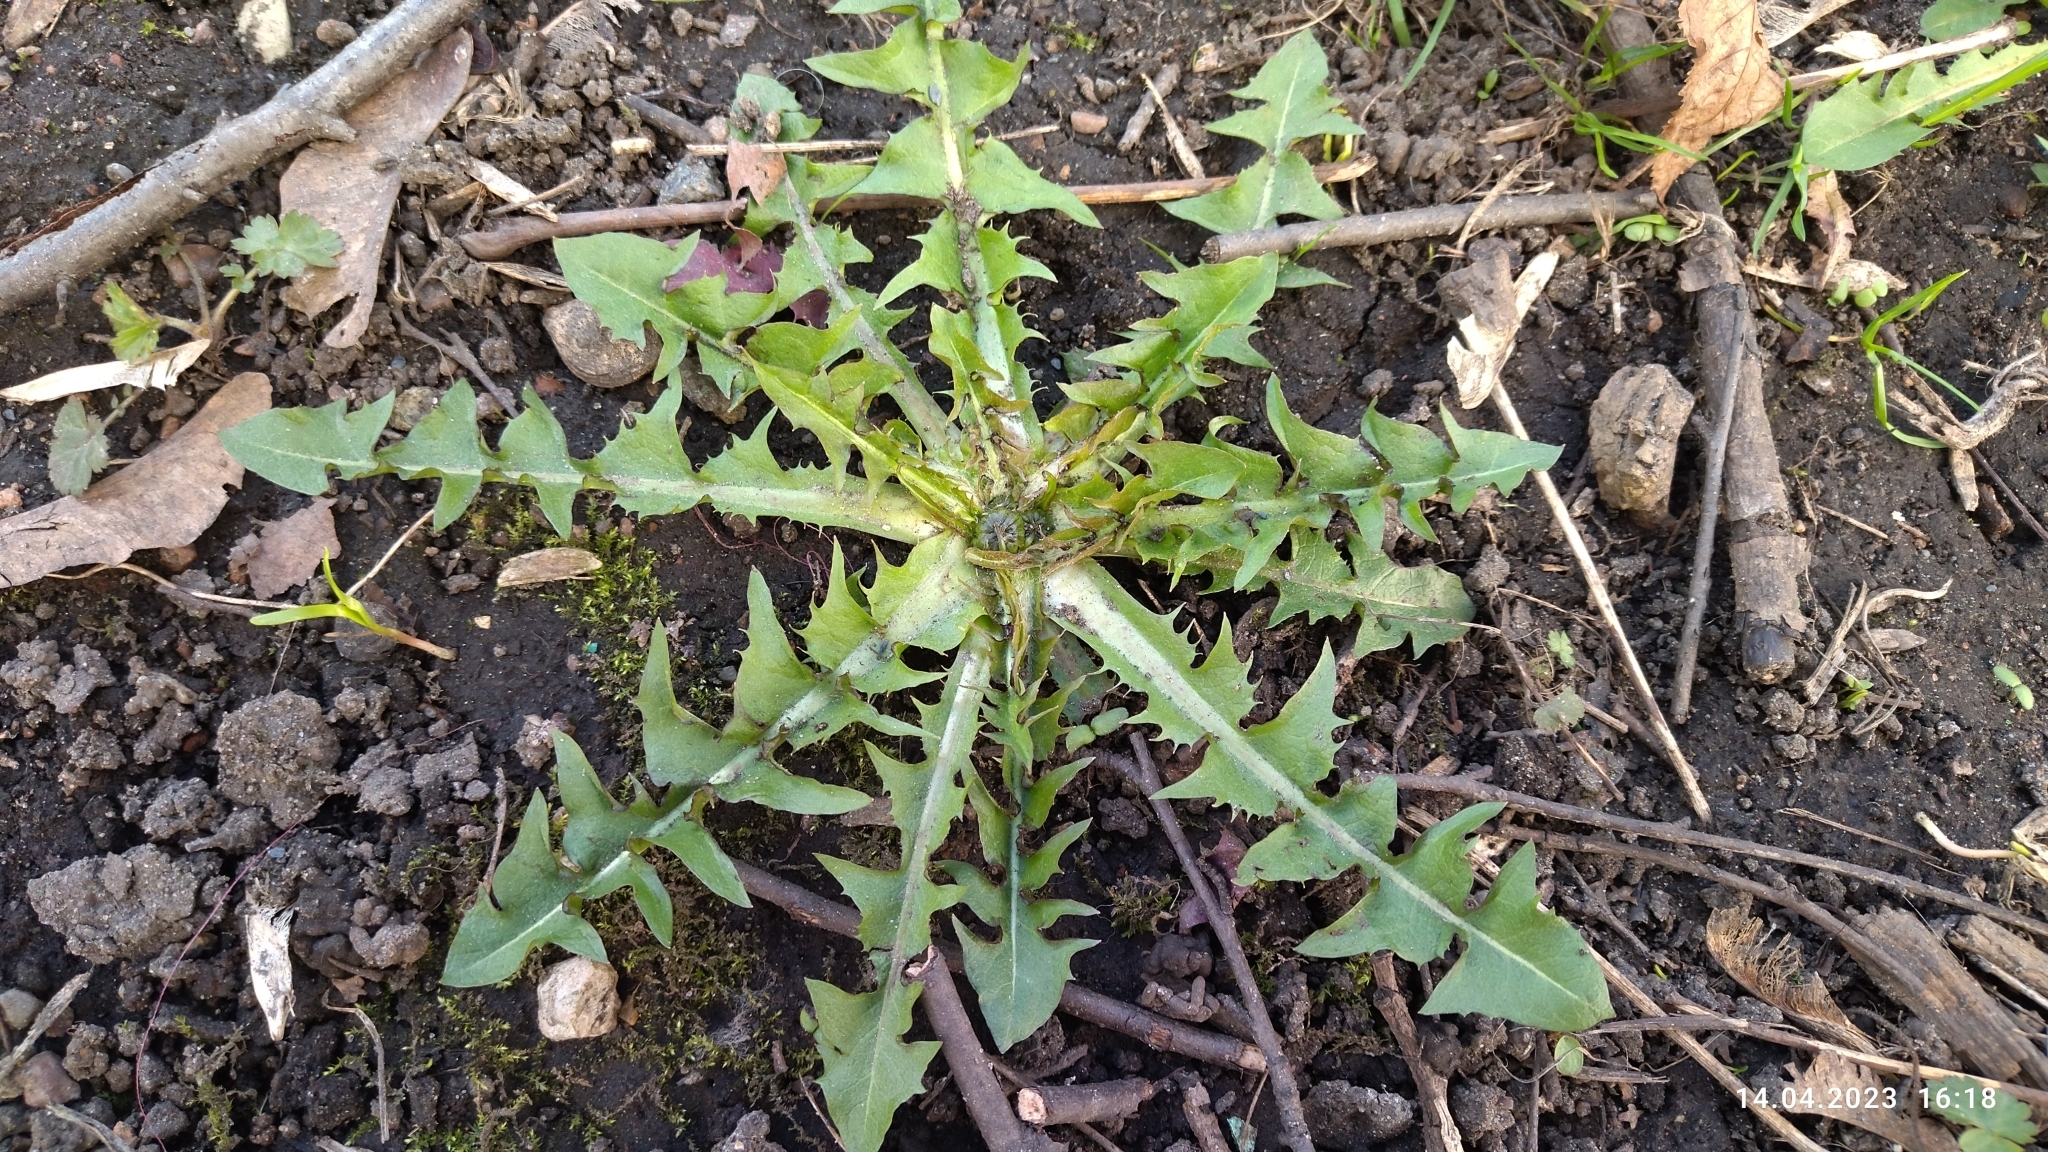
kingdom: Plantae
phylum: Tracheophyta
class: Magnoliopsida
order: Asterales
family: Asteraceae
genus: Taraxacum
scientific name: Taraxacum officinale
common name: Common dandelion
